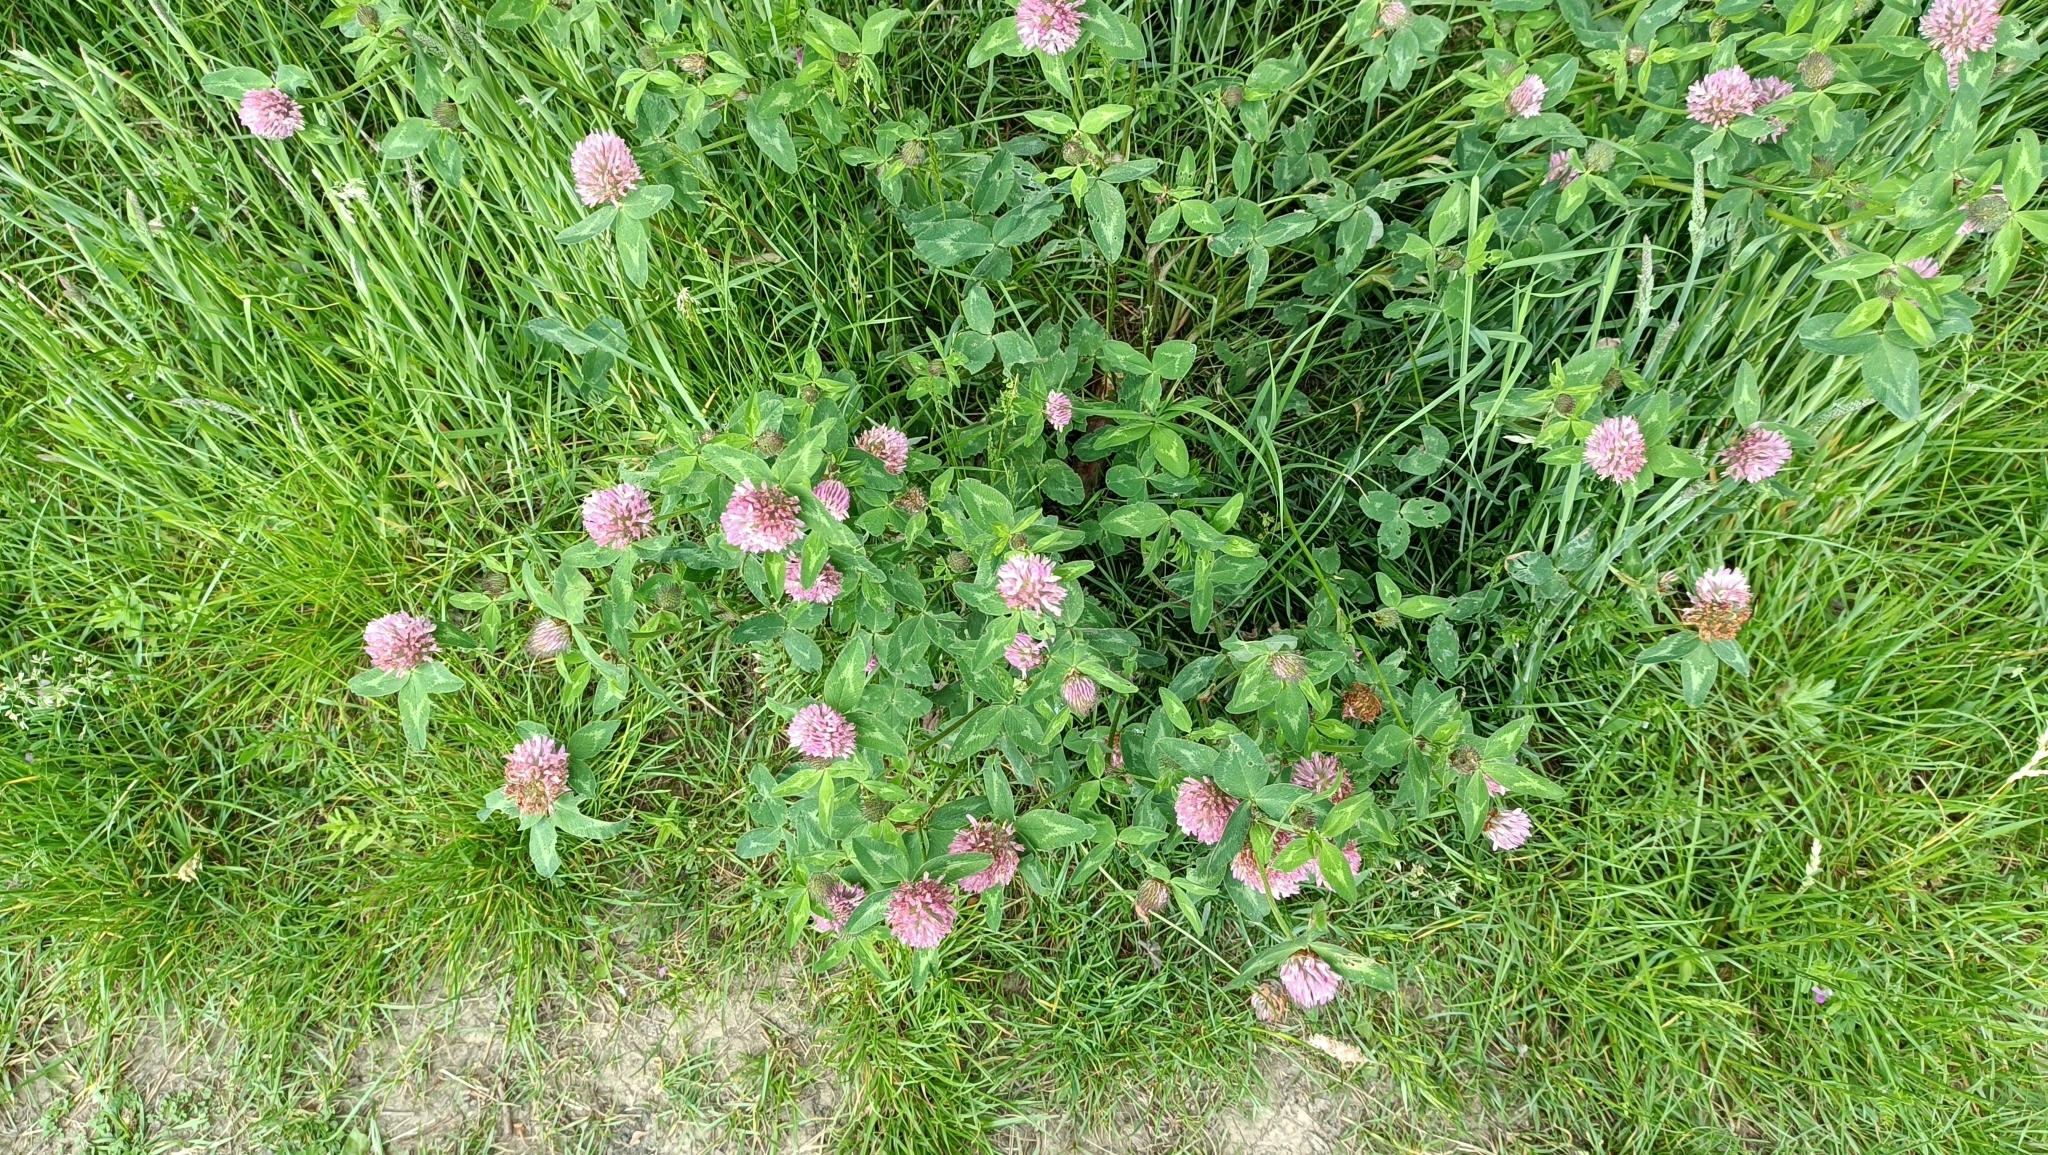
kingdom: Plantae
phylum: Tracheophyta
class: Magnoliopsida
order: Fabales
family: Fabaceae
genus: Trifolium
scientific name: Trifolium pratense
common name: Red clover
